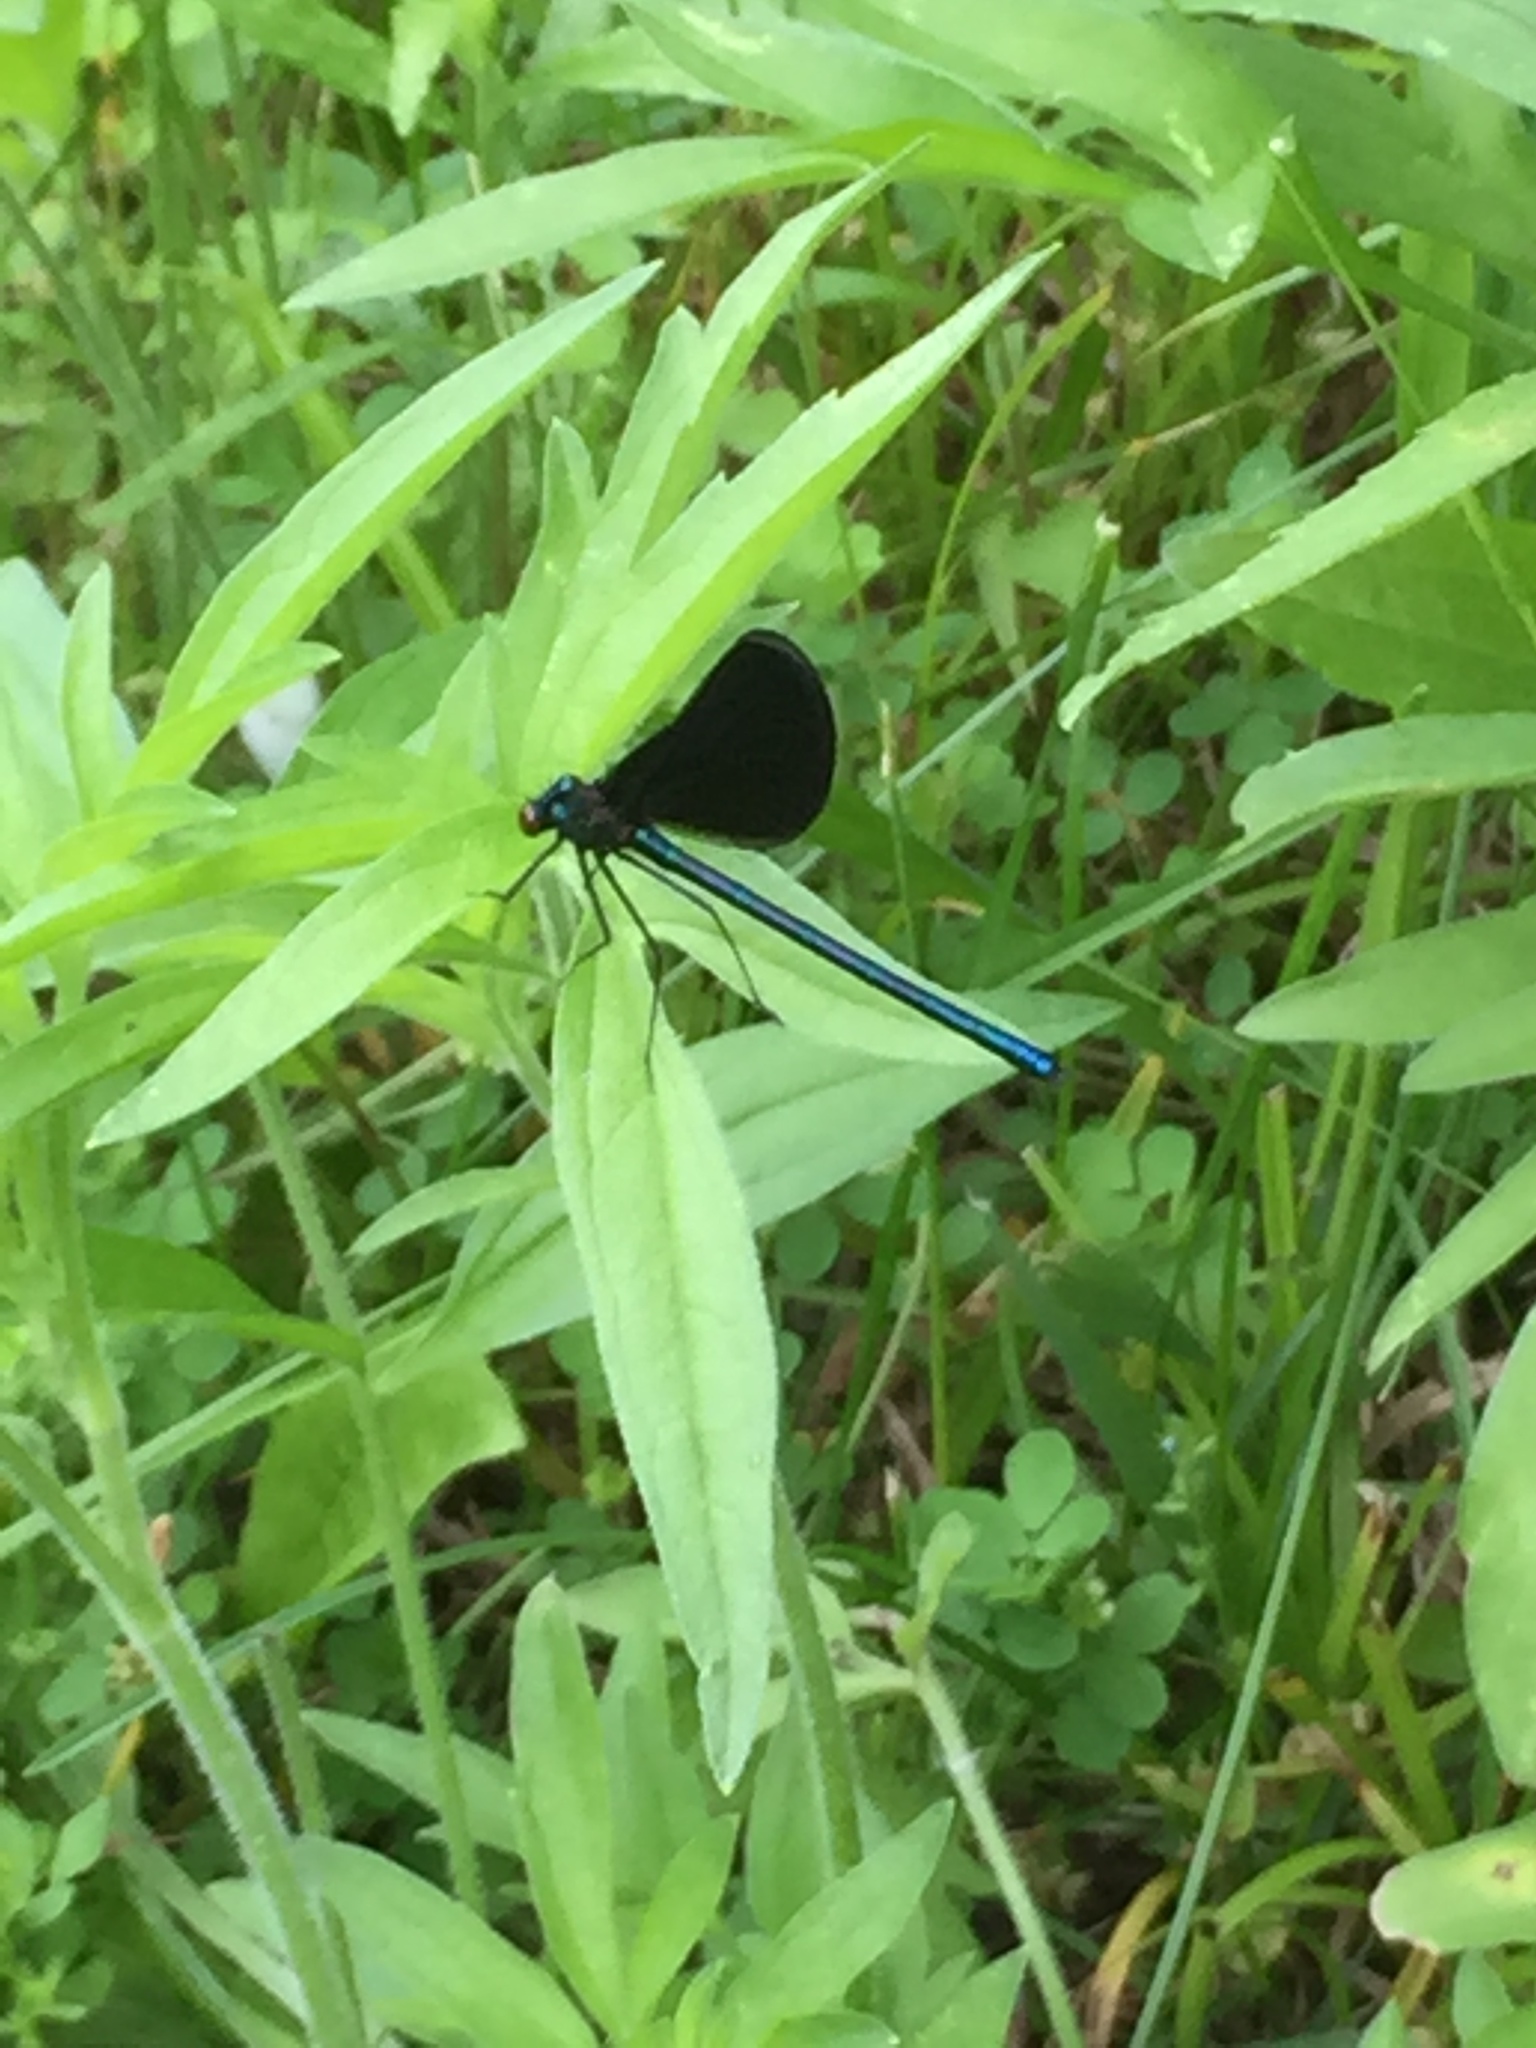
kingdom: Animalia
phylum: Arthropoda
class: Insecta
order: Odonata
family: Calopterygidae
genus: Calopteryx
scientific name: Calopteryx maculata
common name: Ebony jewelwing
